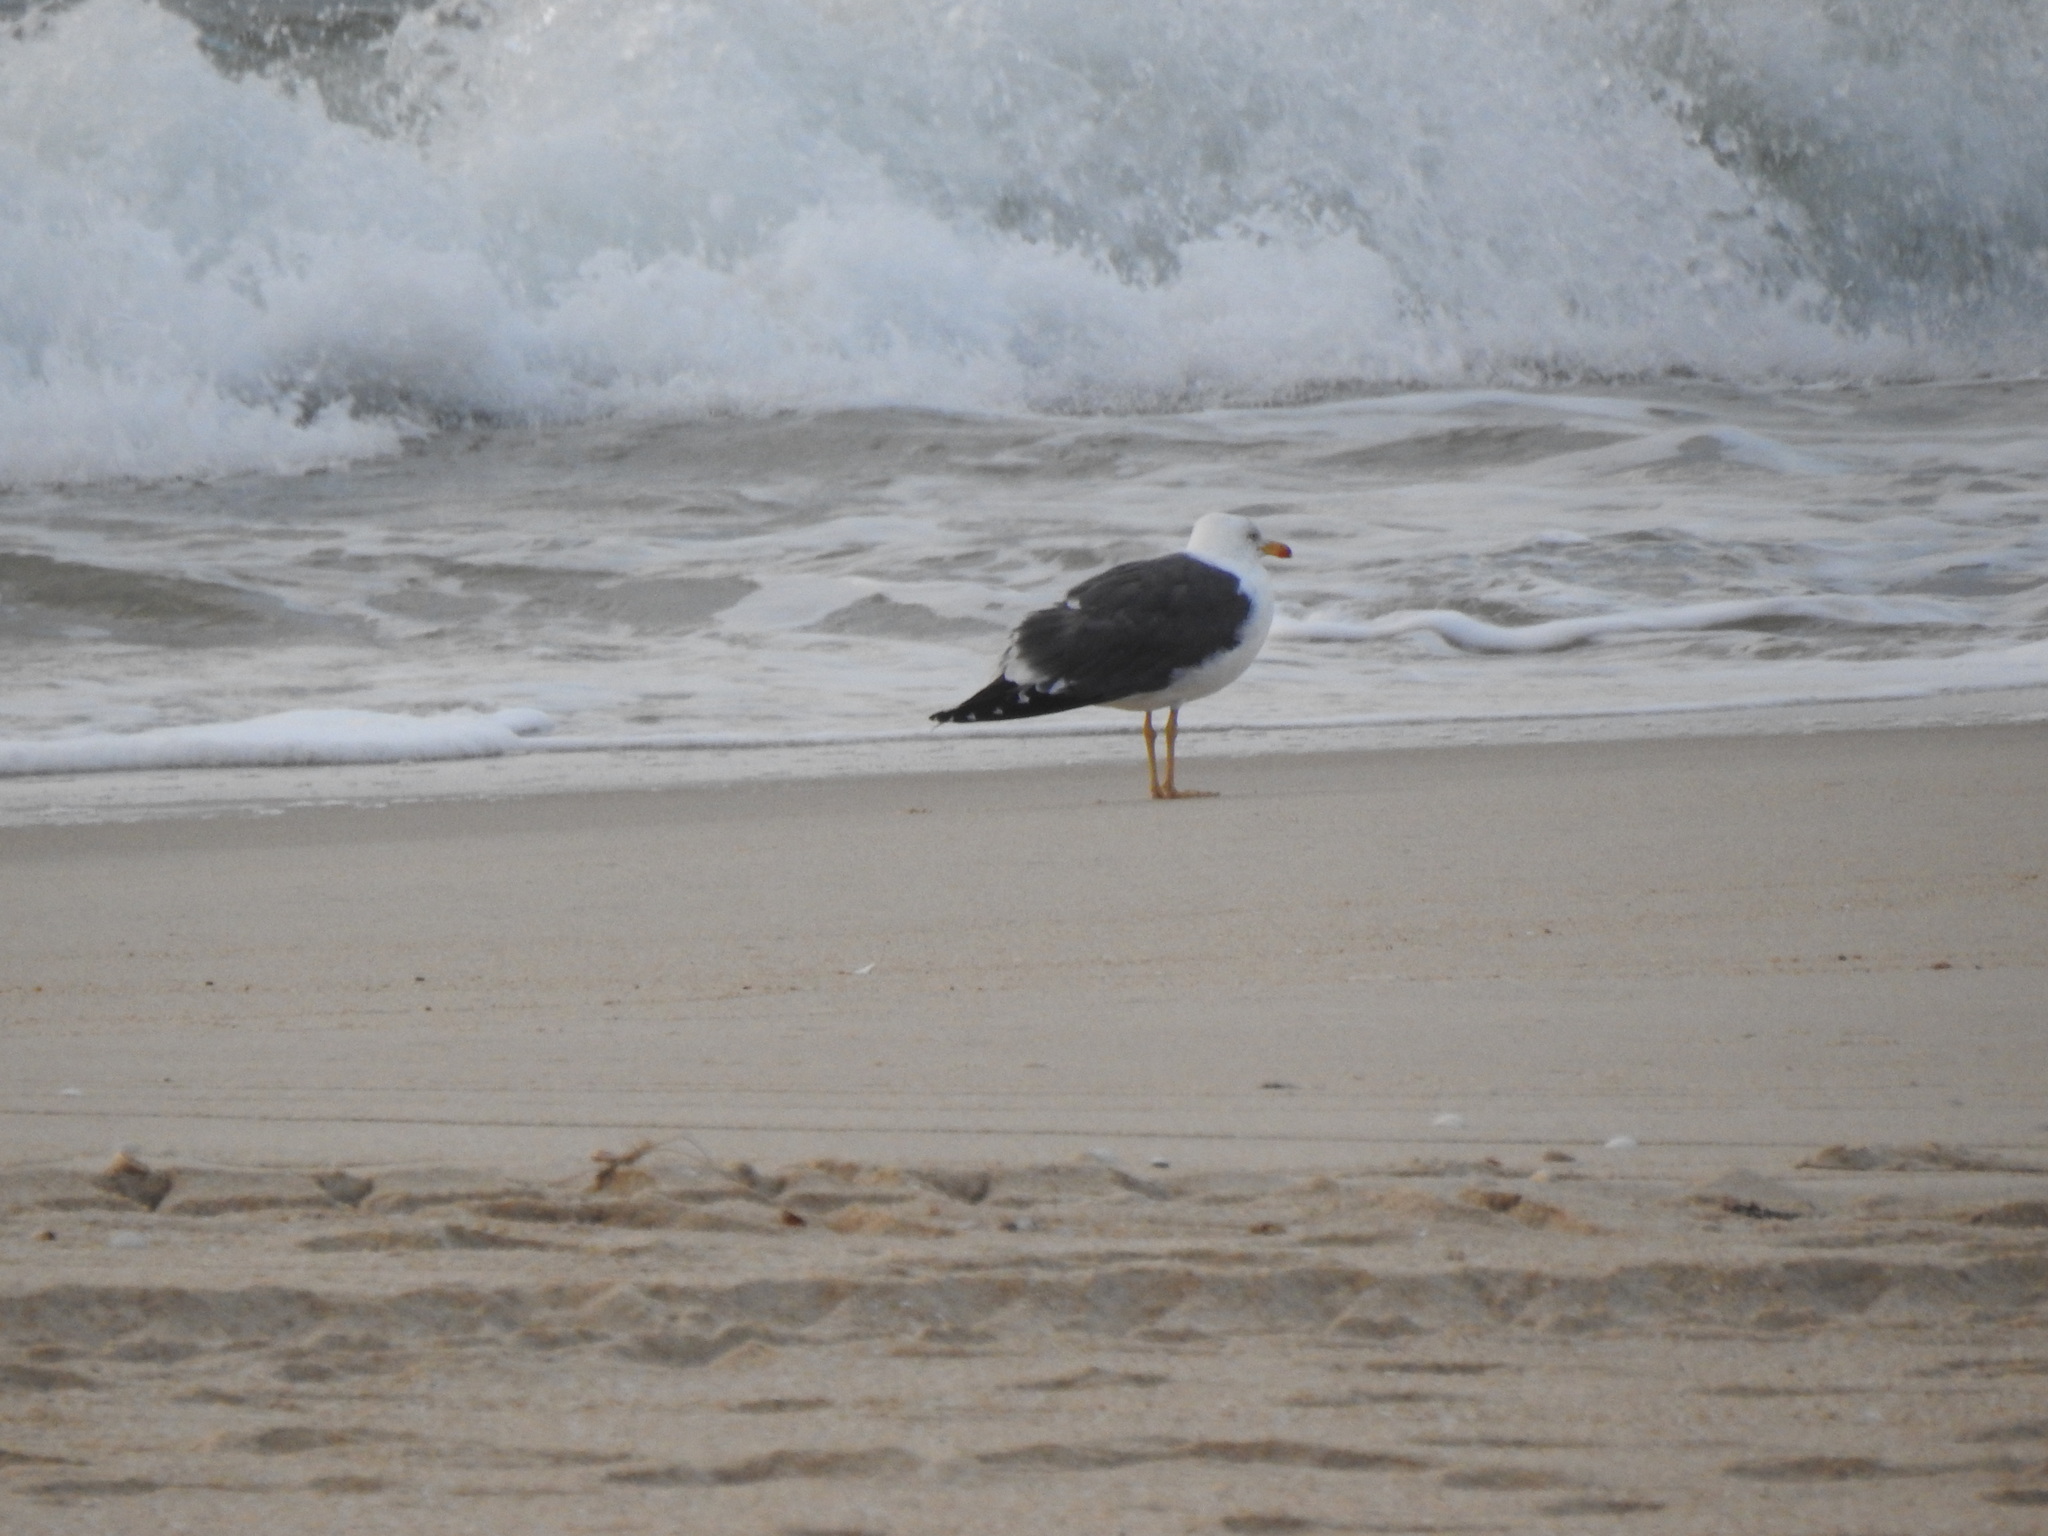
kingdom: Animalia
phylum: Chordata
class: Aves
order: Charadriiformes
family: Laridae
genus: Larus
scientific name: Larus fuscus
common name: Lesser black-backed gull
